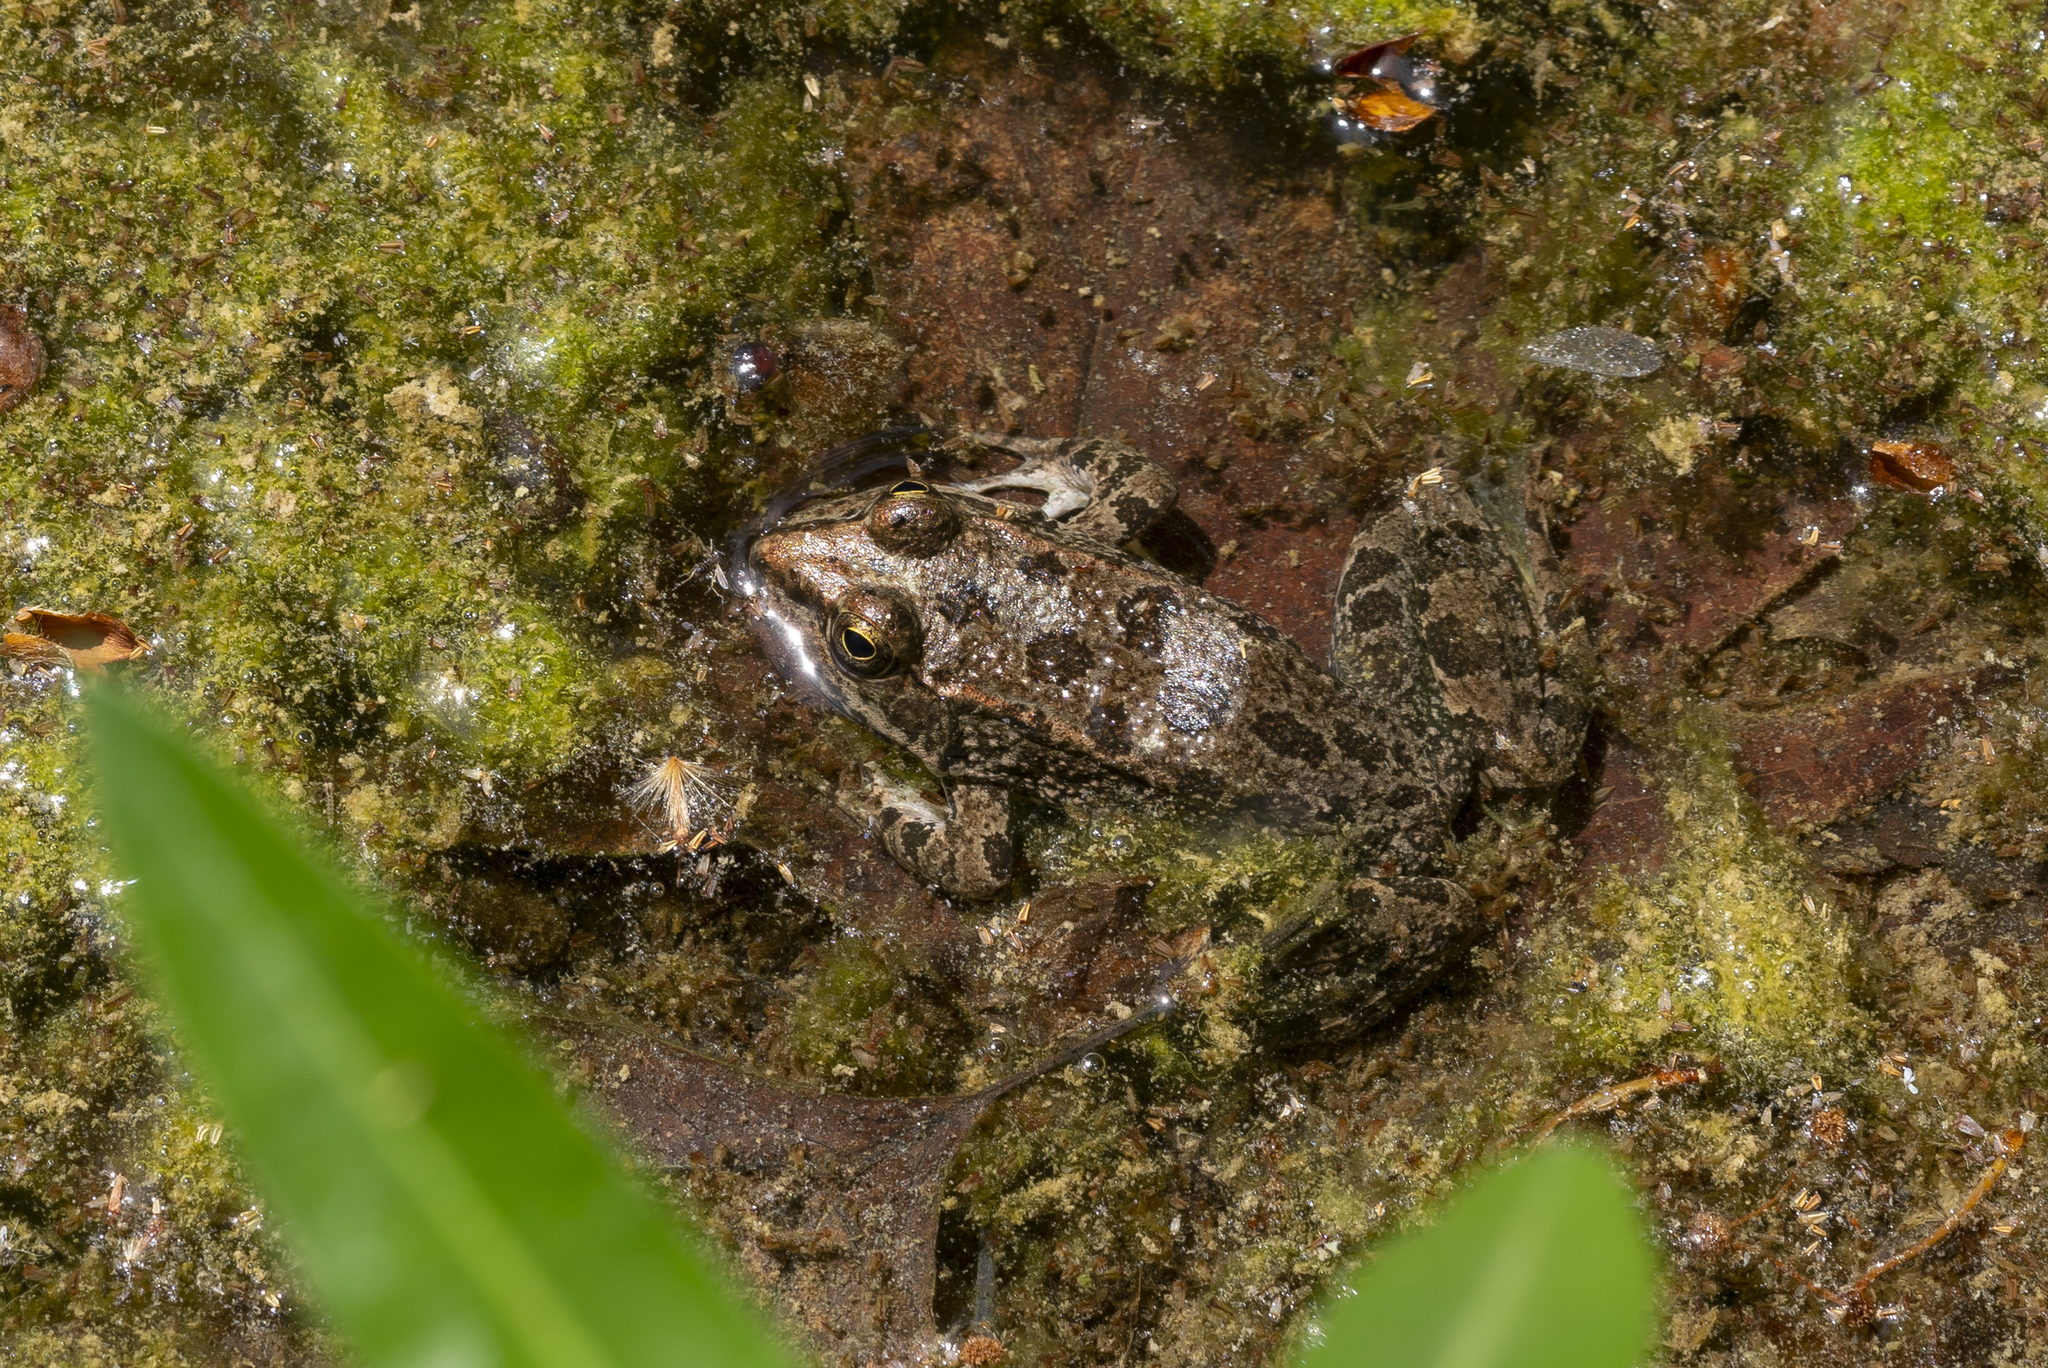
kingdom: Animalia
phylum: Chordata
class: Amphibia
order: Anura
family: Ranidae
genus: Pelophylax
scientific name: Pelophylax ridibundus
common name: Marsh frog
